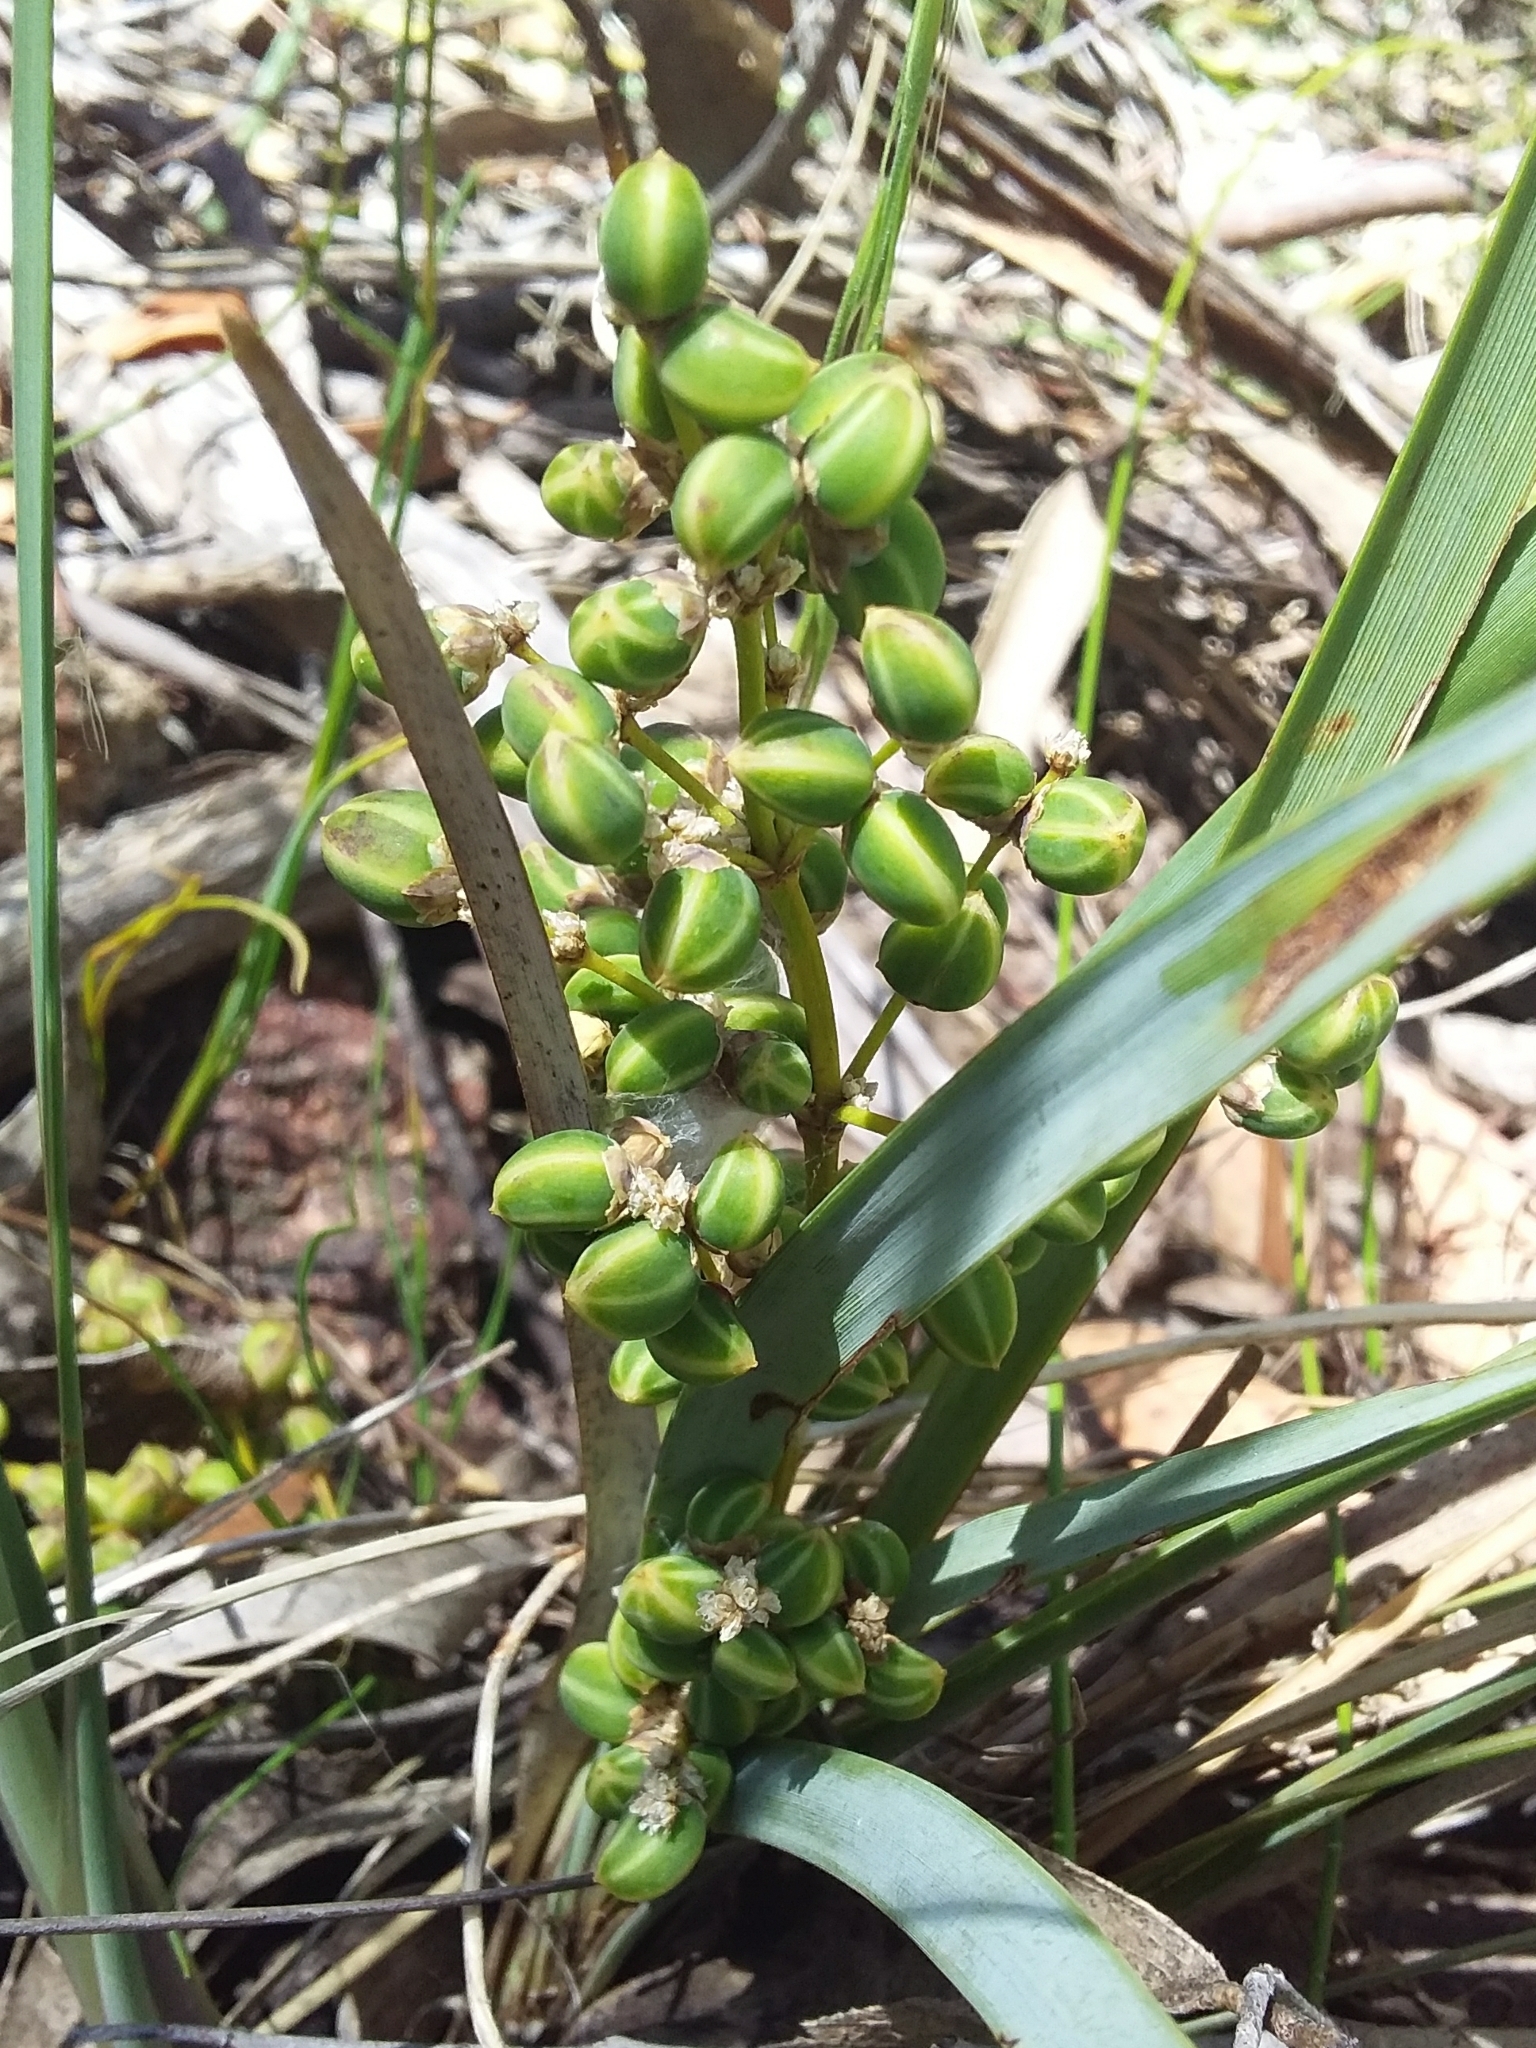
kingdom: Plantae
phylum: Tracheophyta
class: Liliopsida
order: Asparagales
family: Asparagaceae
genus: Lomandra
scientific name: Lomandra multiflora
